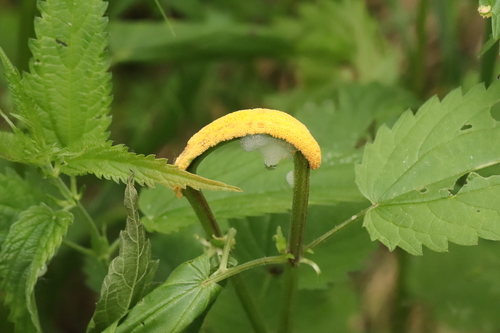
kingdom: Fungi
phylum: Basidiomycota
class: Pucciniomycetes
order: Pucciniales
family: Pucciniaceae
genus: Puccinia
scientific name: Puccinia urticata
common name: Nettle clustercup rust fungus
